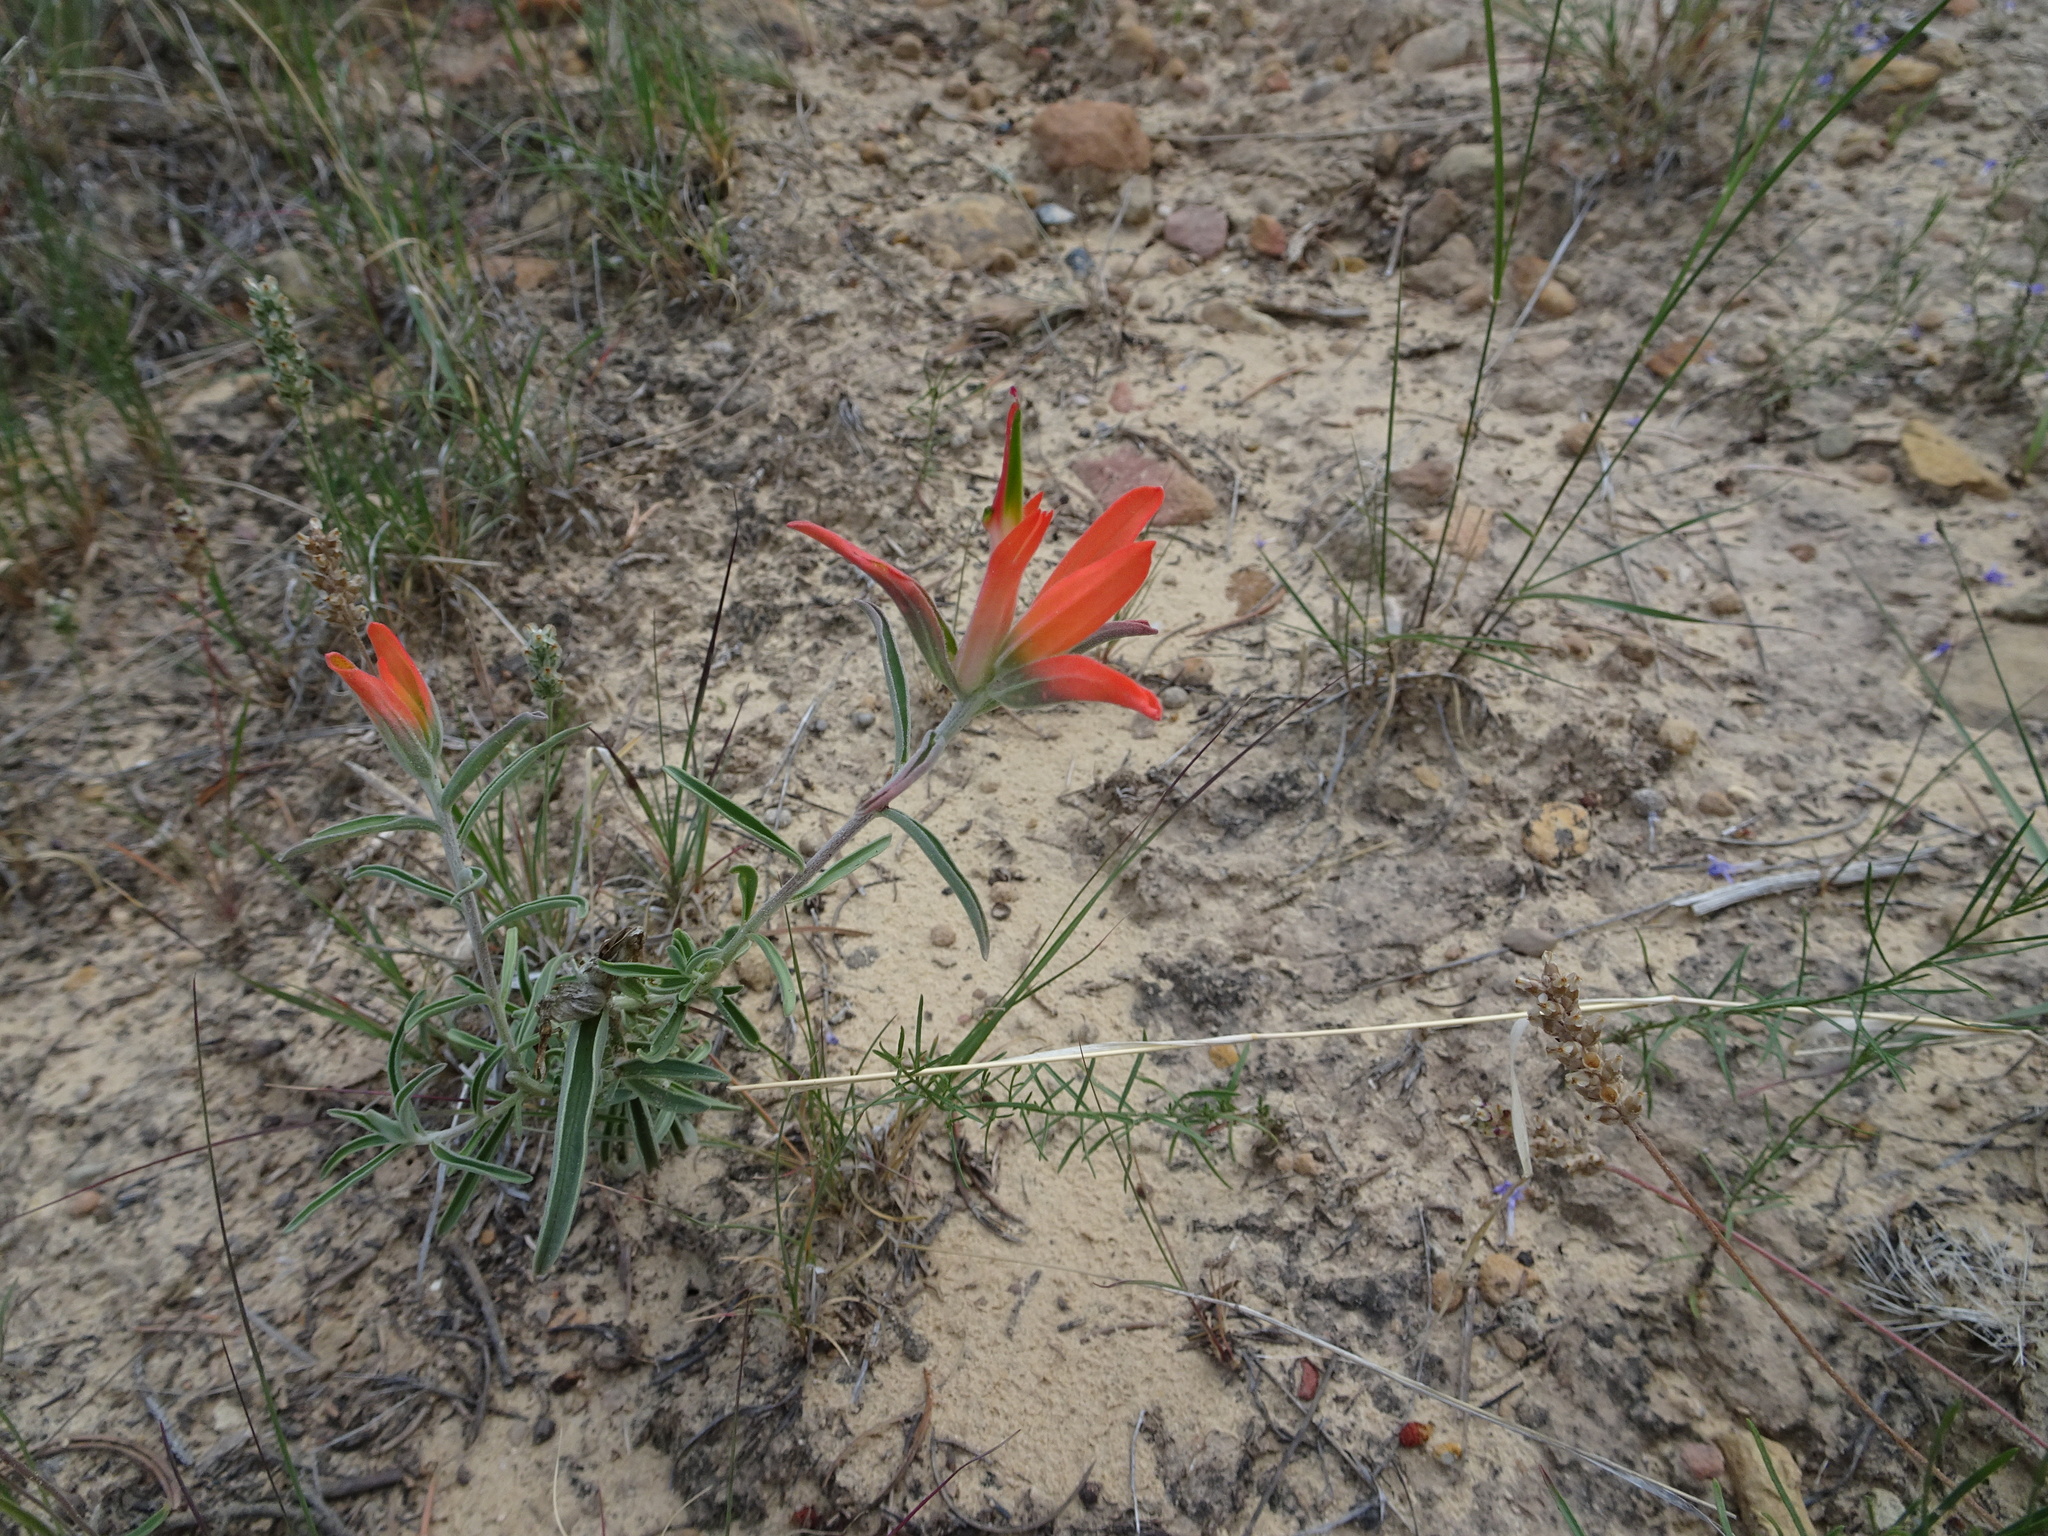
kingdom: Plantae
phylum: Tracheophyta
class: Magnoliopsida
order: Lamiales
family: Orobanchaceae
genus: Castilleja
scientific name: Castilleja integra
